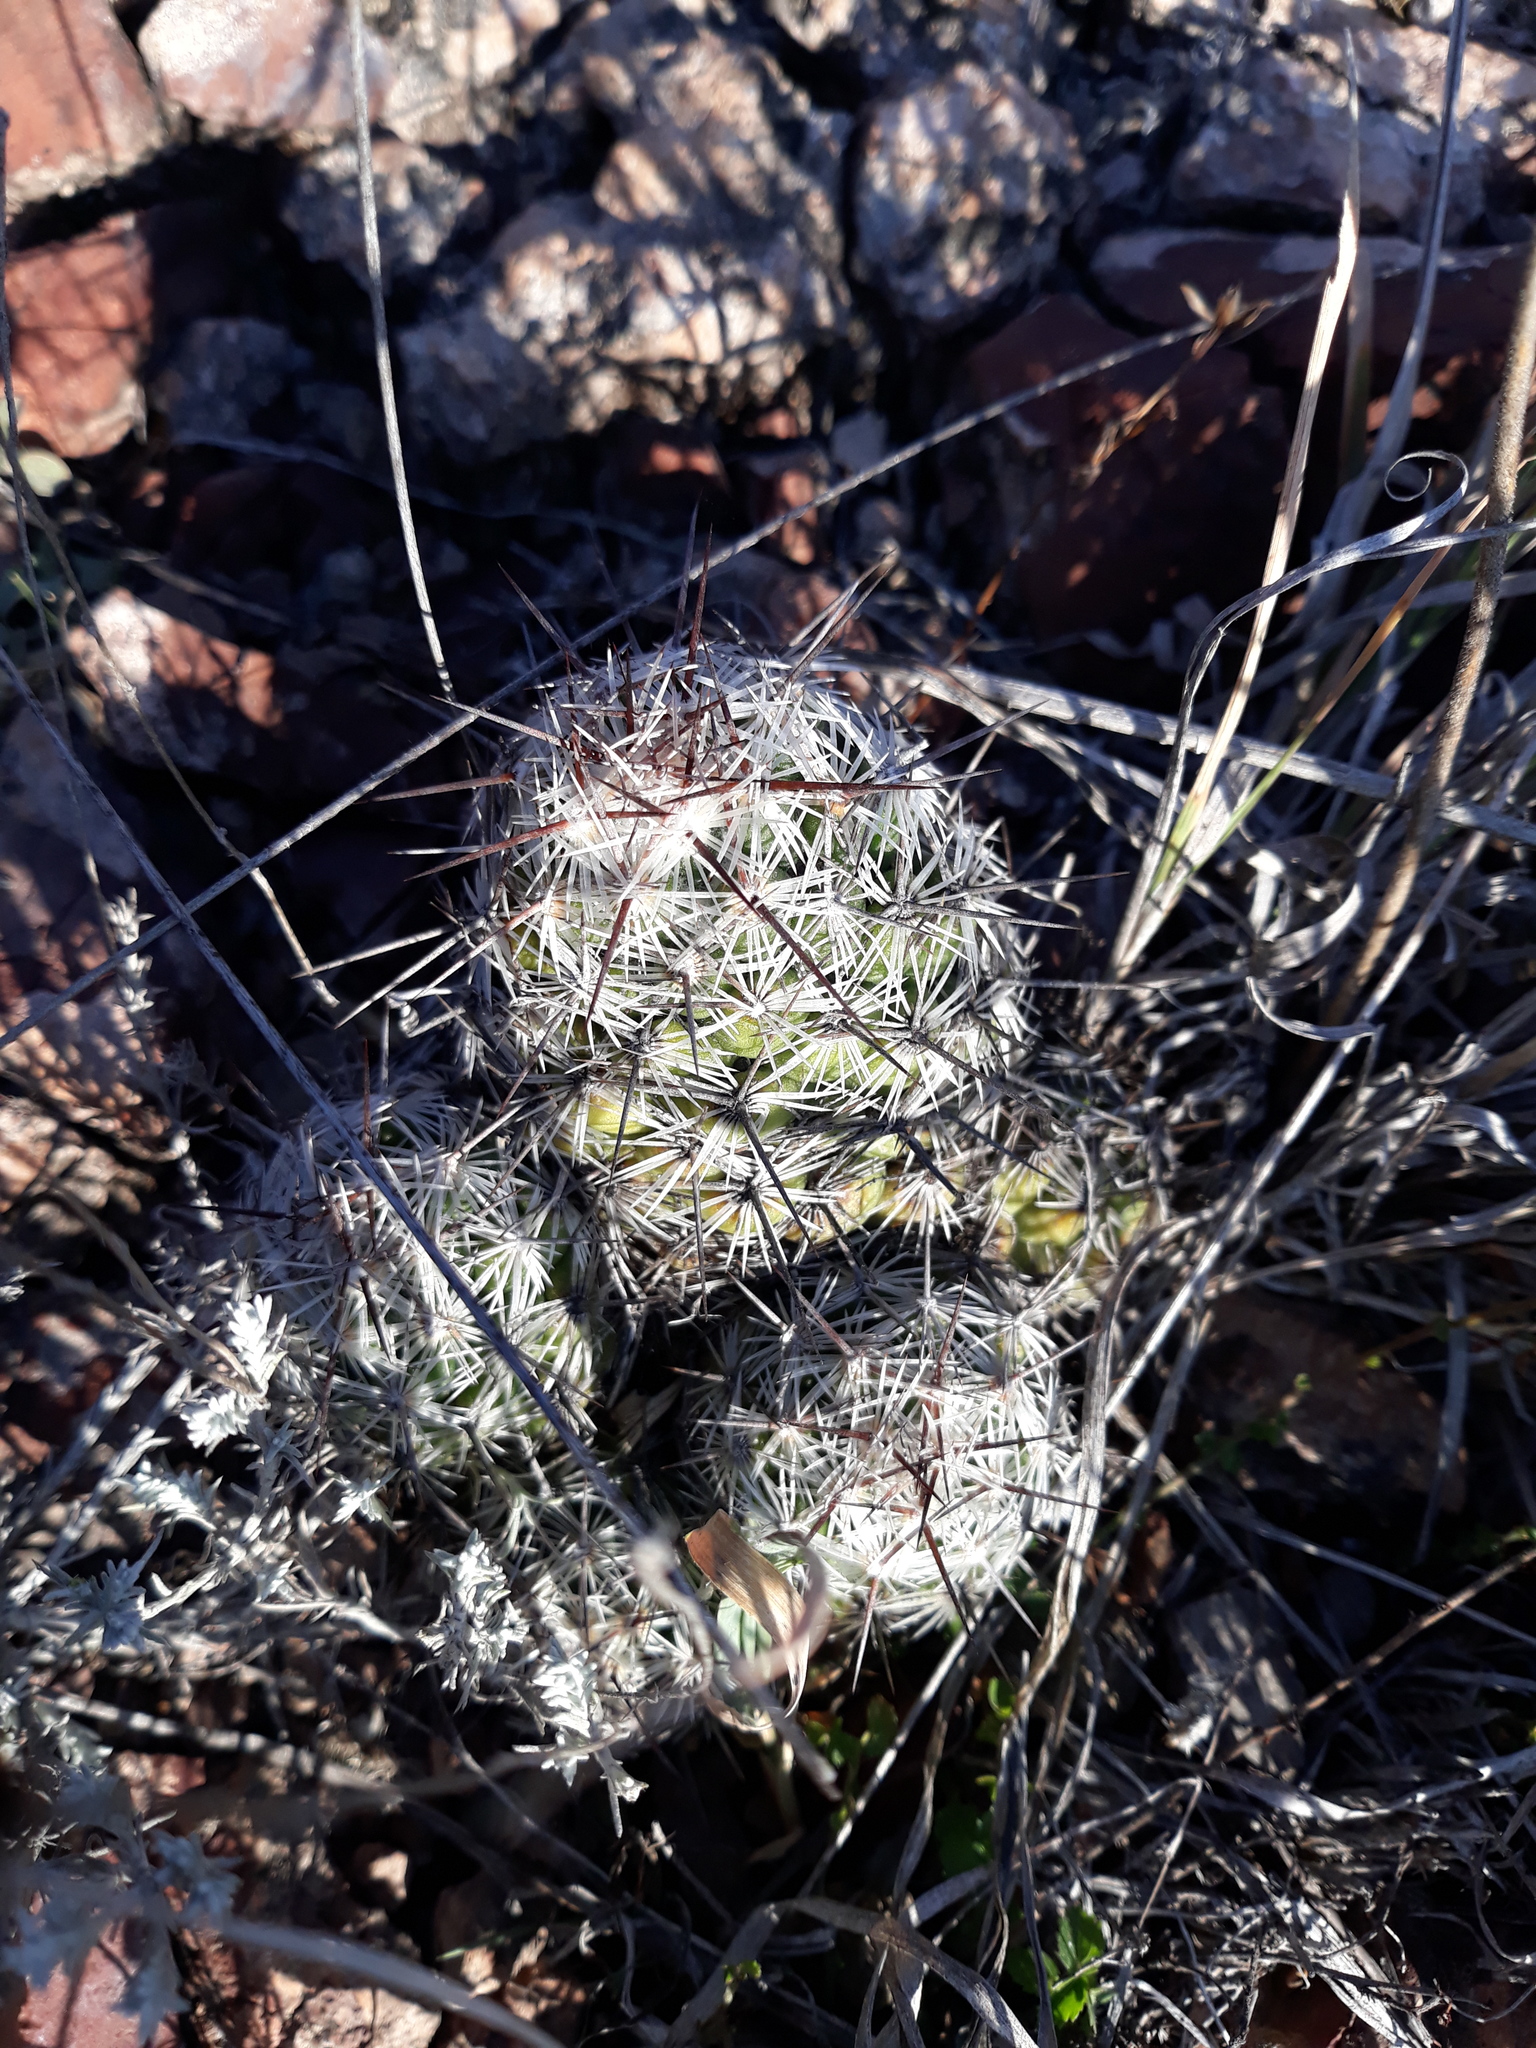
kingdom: Plantae
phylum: Tracheophyta
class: Magnoliopsida
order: Caryophyllales
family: Cactaceae
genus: Cochemiea
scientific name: Cochemiea conoidea
